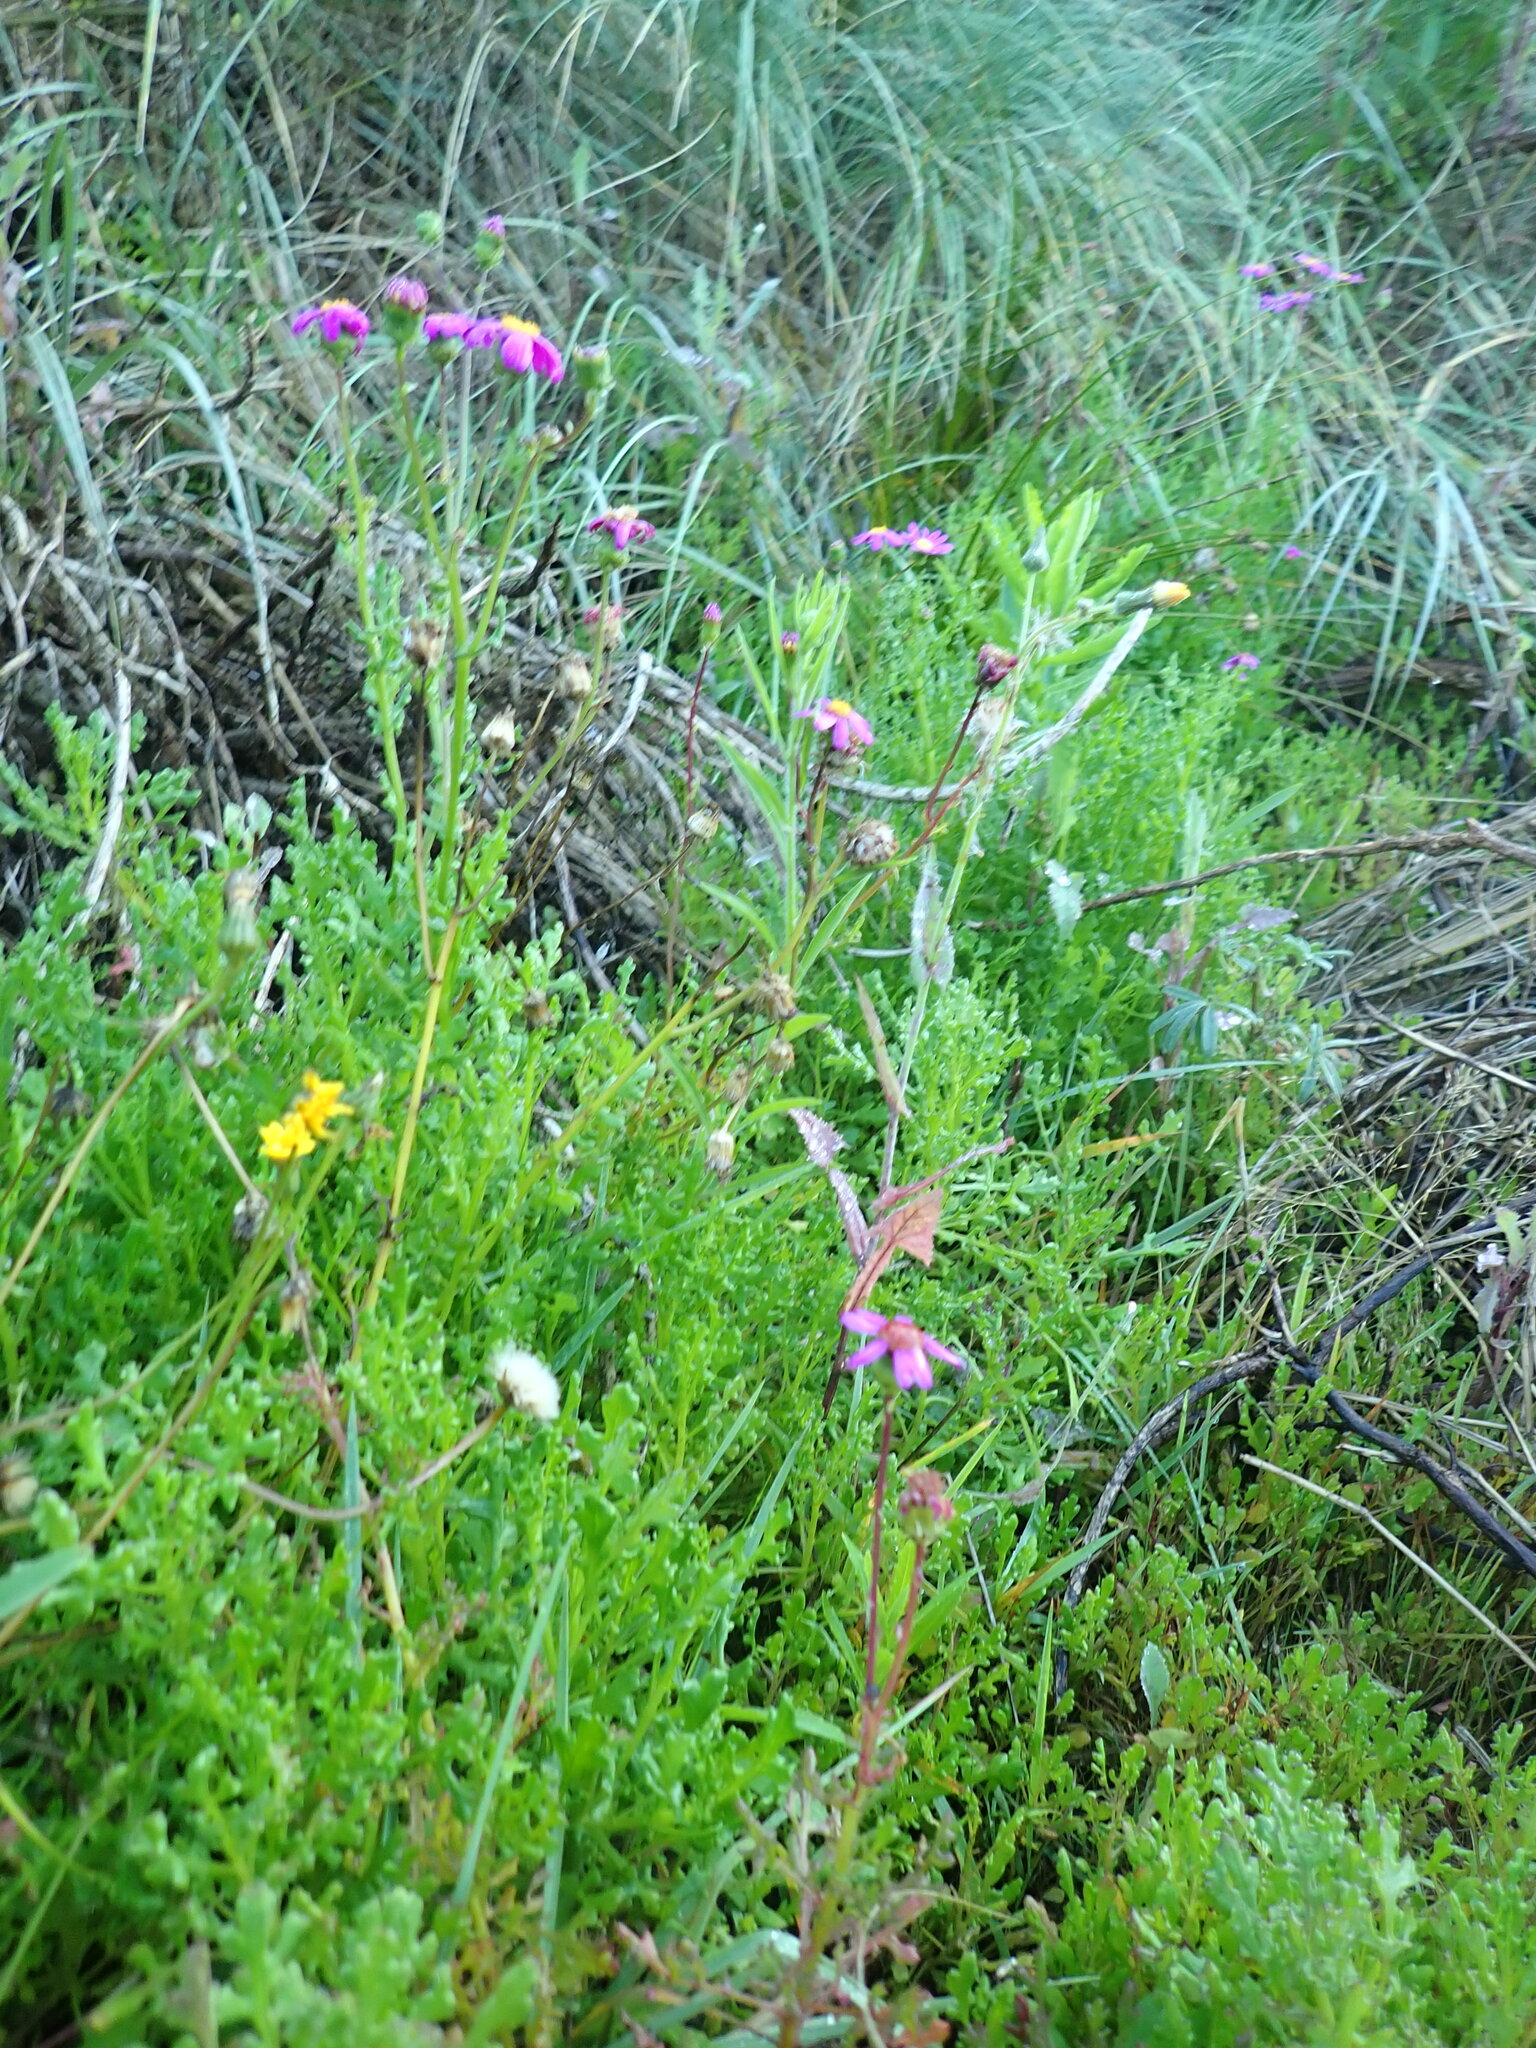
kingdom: Plantae
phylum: Tracheophyta
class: Magnoliopsida
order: Asterales
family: Asteraceae
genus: Senecio
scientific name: Senecio elegans
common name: Purple groundsel
